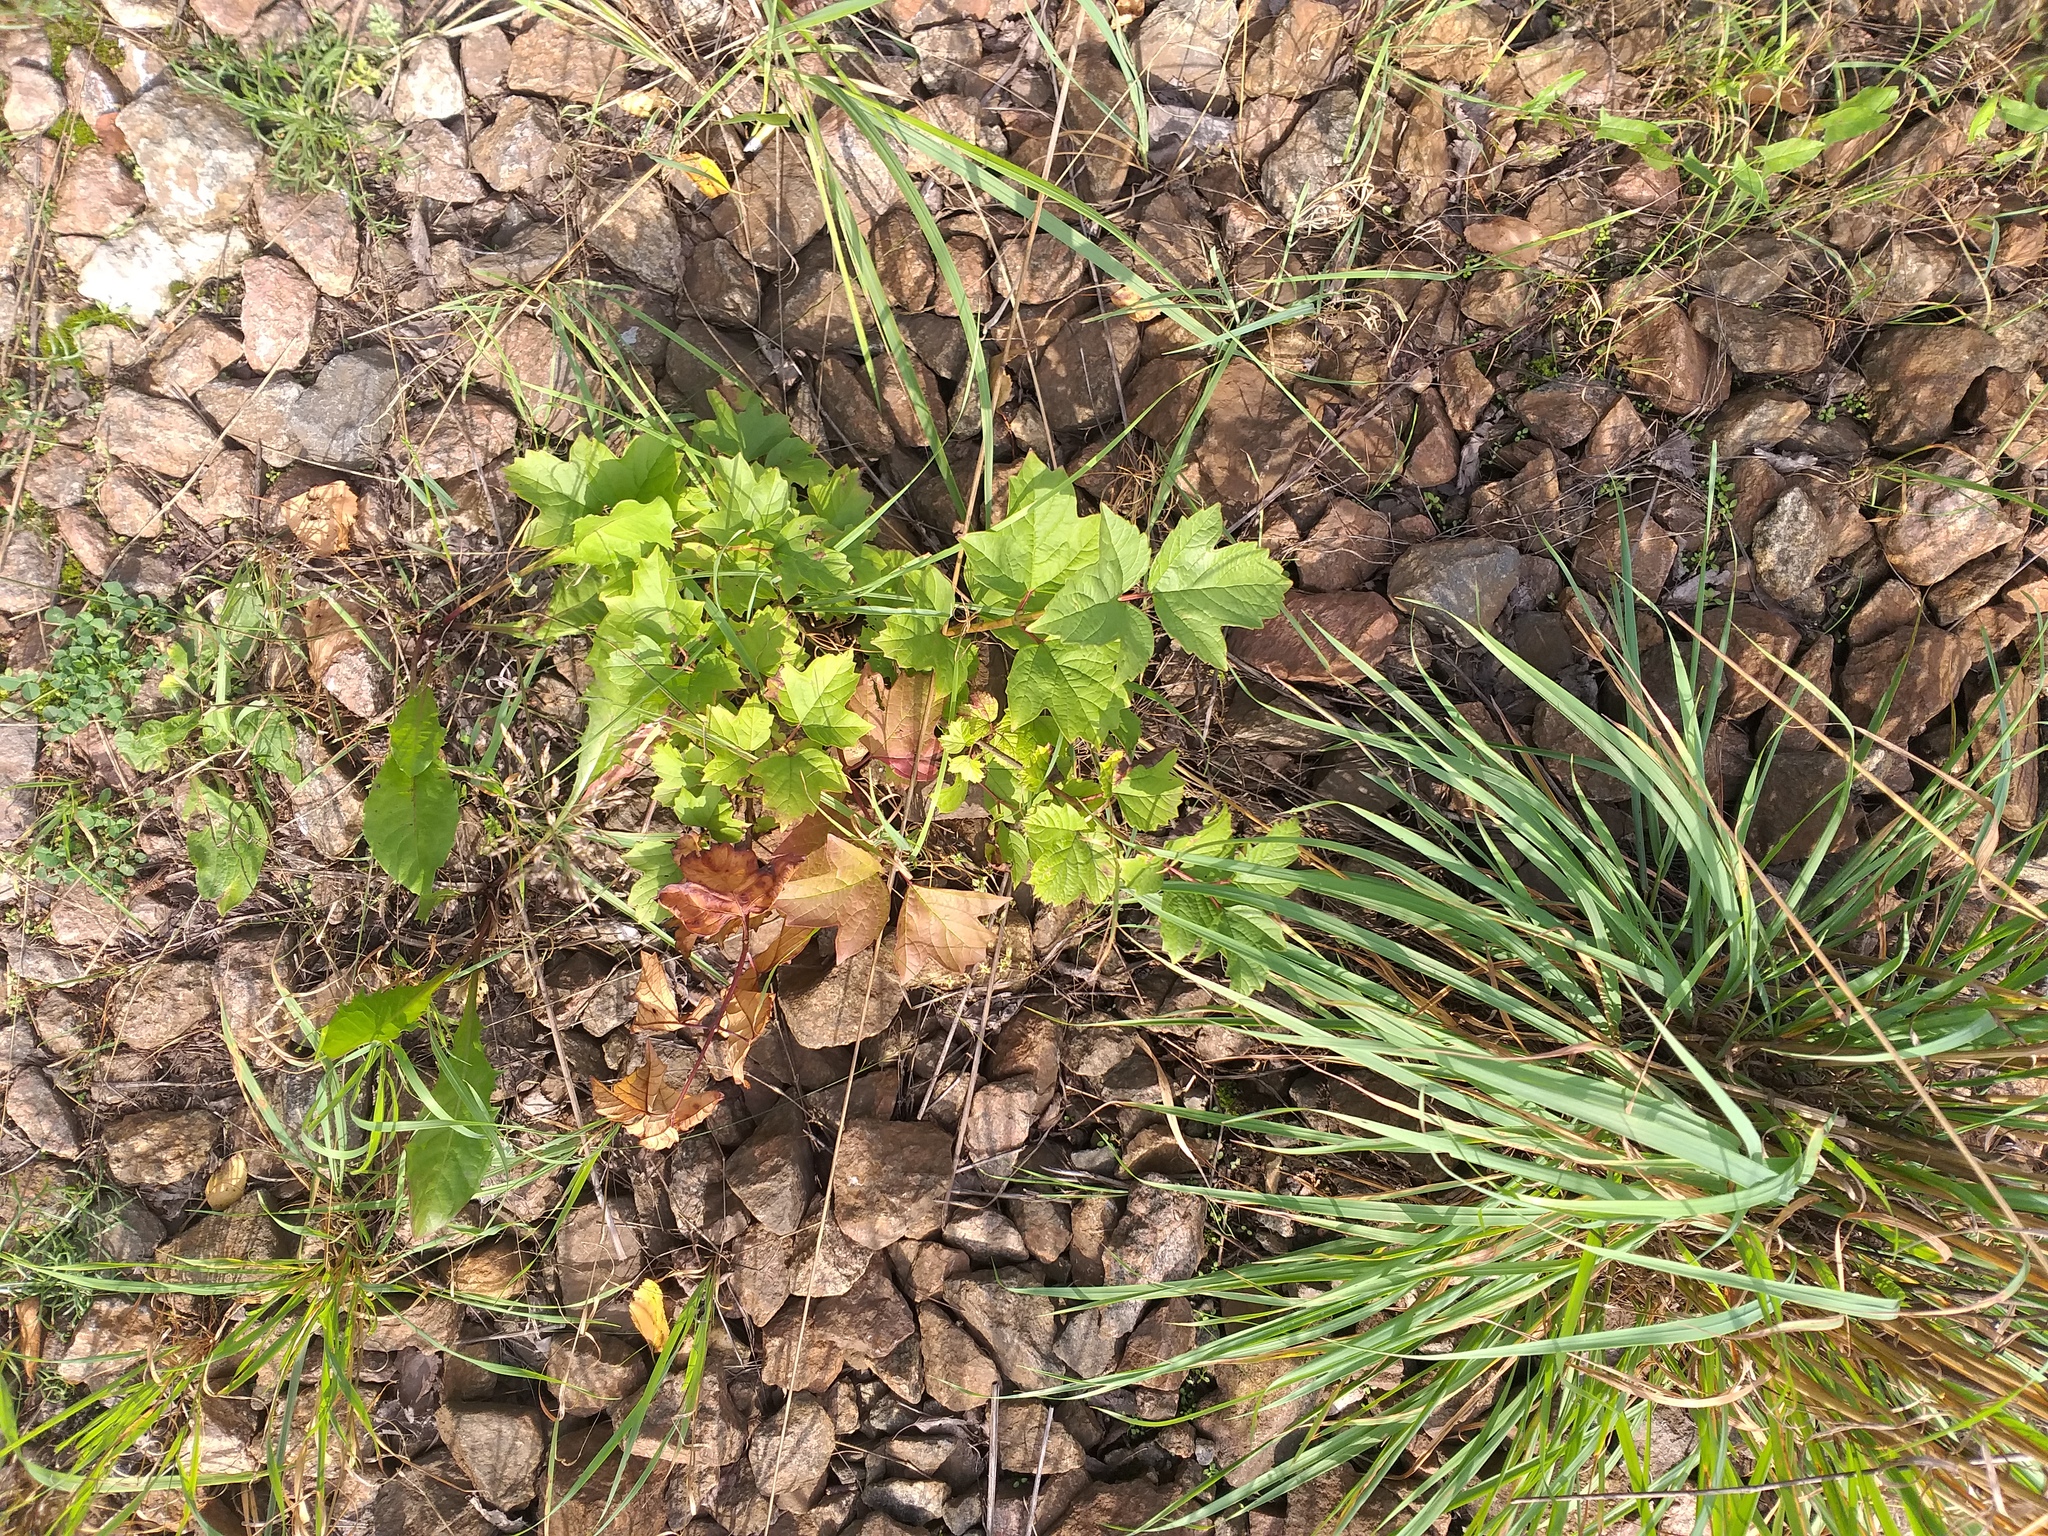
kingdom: Plantae
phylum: Tracheophyta
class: Magnoliopsida
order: Dipsacales
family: Viburnaceae
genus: Viburnum
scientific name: Viburnum opulus
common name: Guelder-rose
